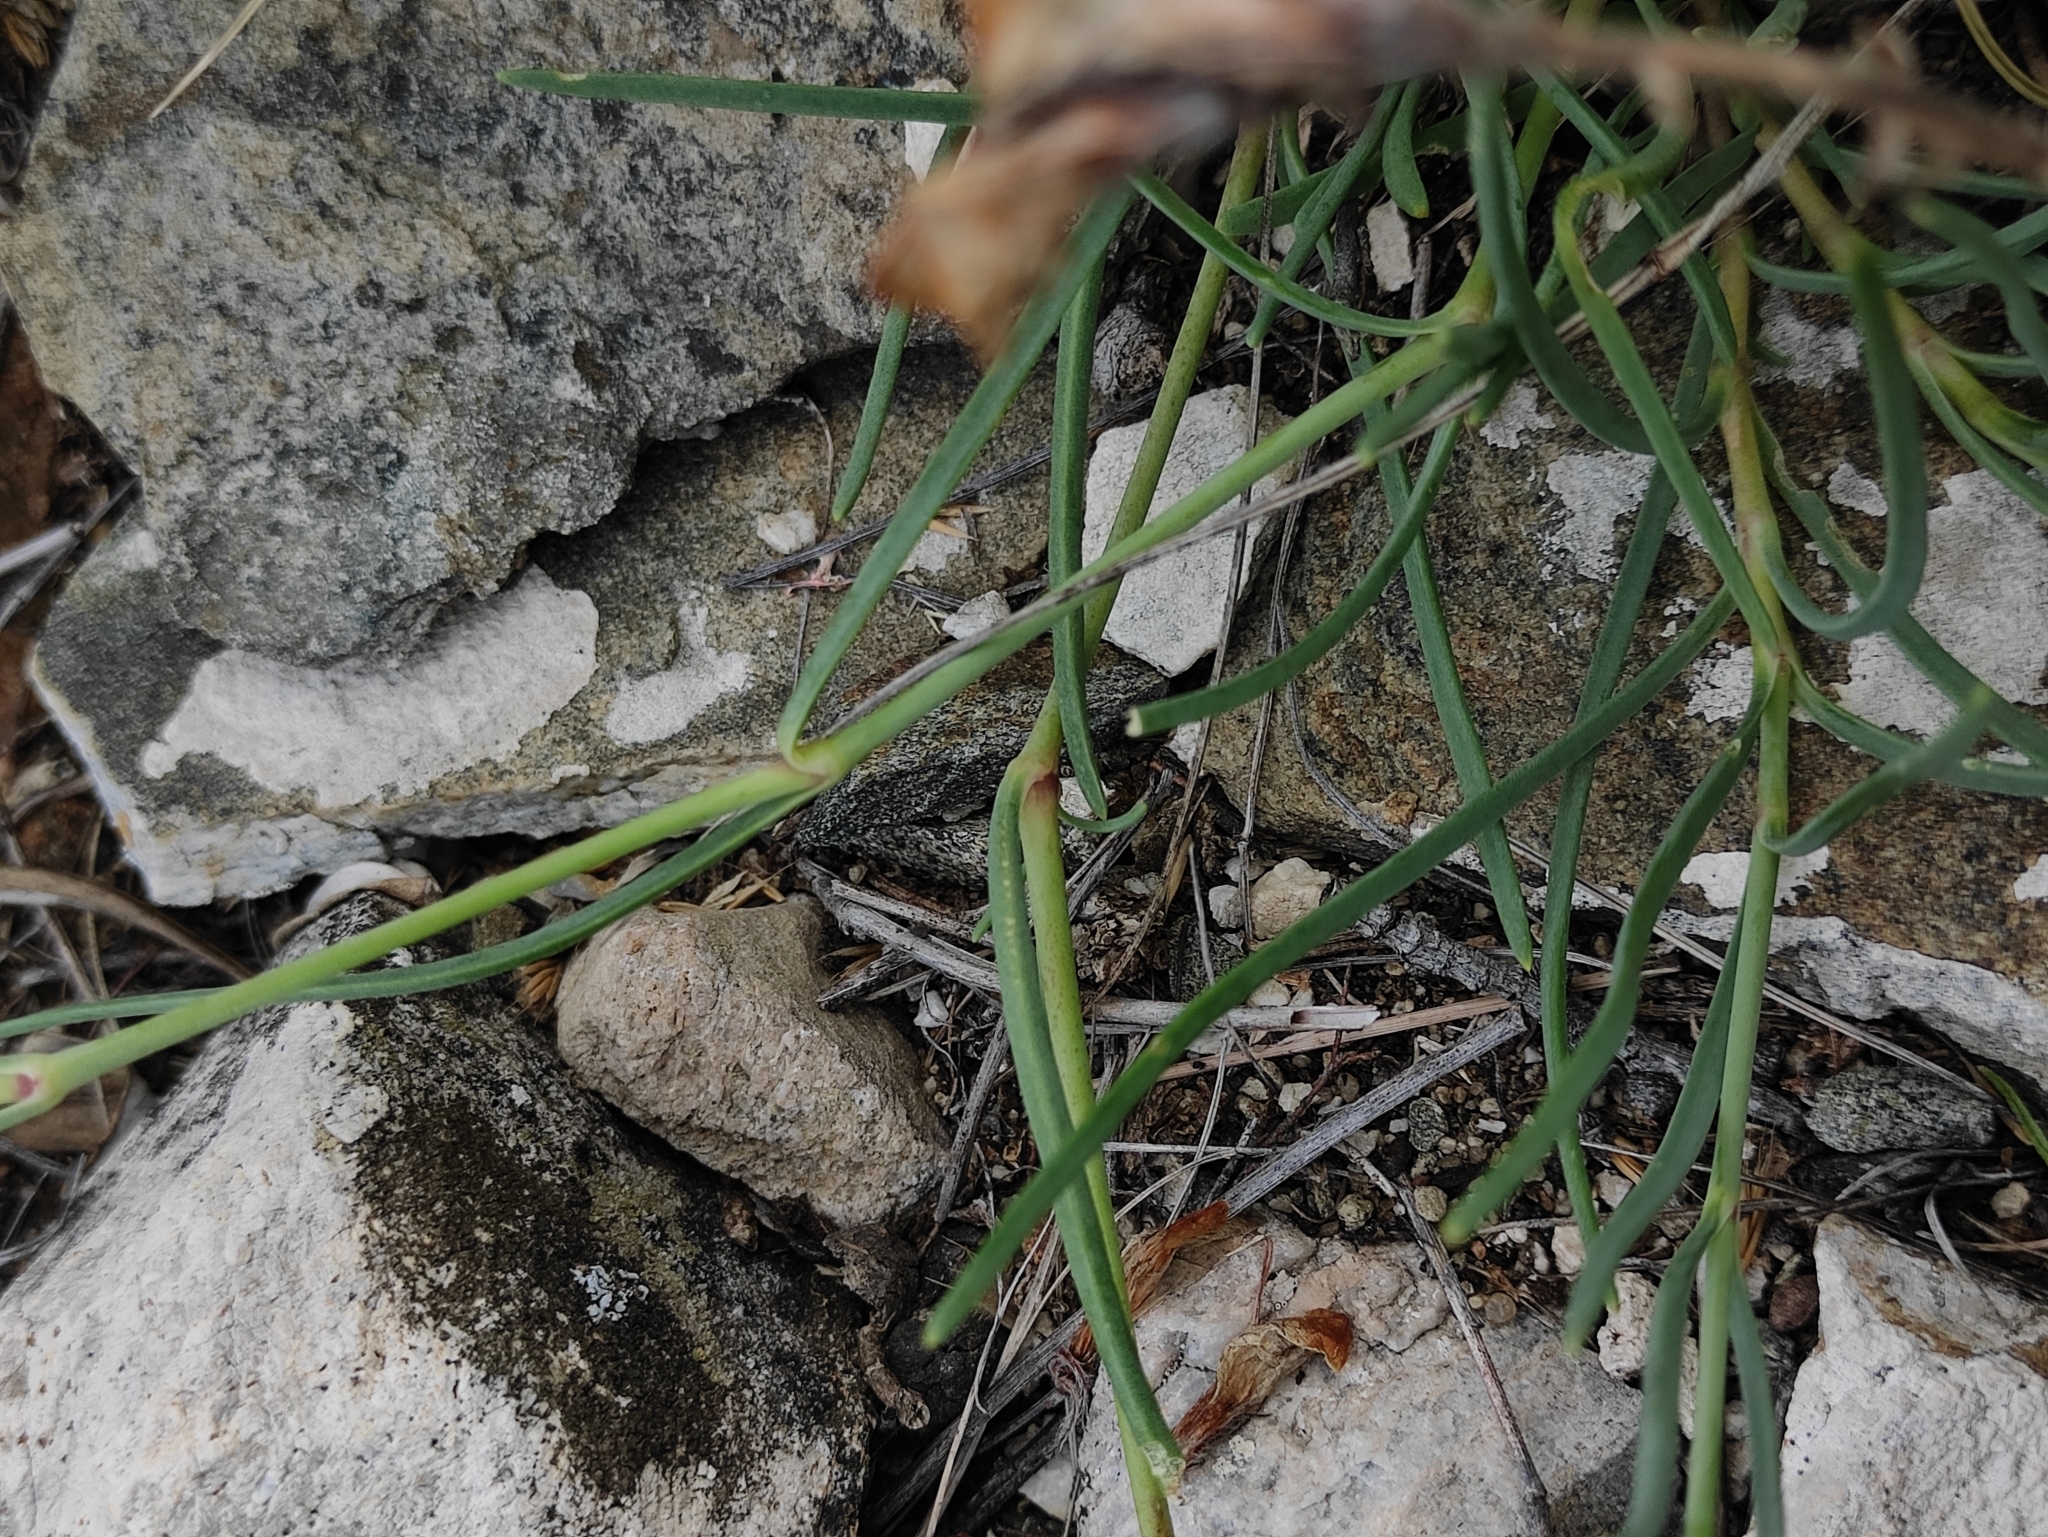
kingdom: Plantae
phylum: Tracheophyta
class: Magnoliopsida
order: Caryophyllales
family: Caryophyllaceae
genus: Gypsophila
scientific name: Gypsophila patrinii
